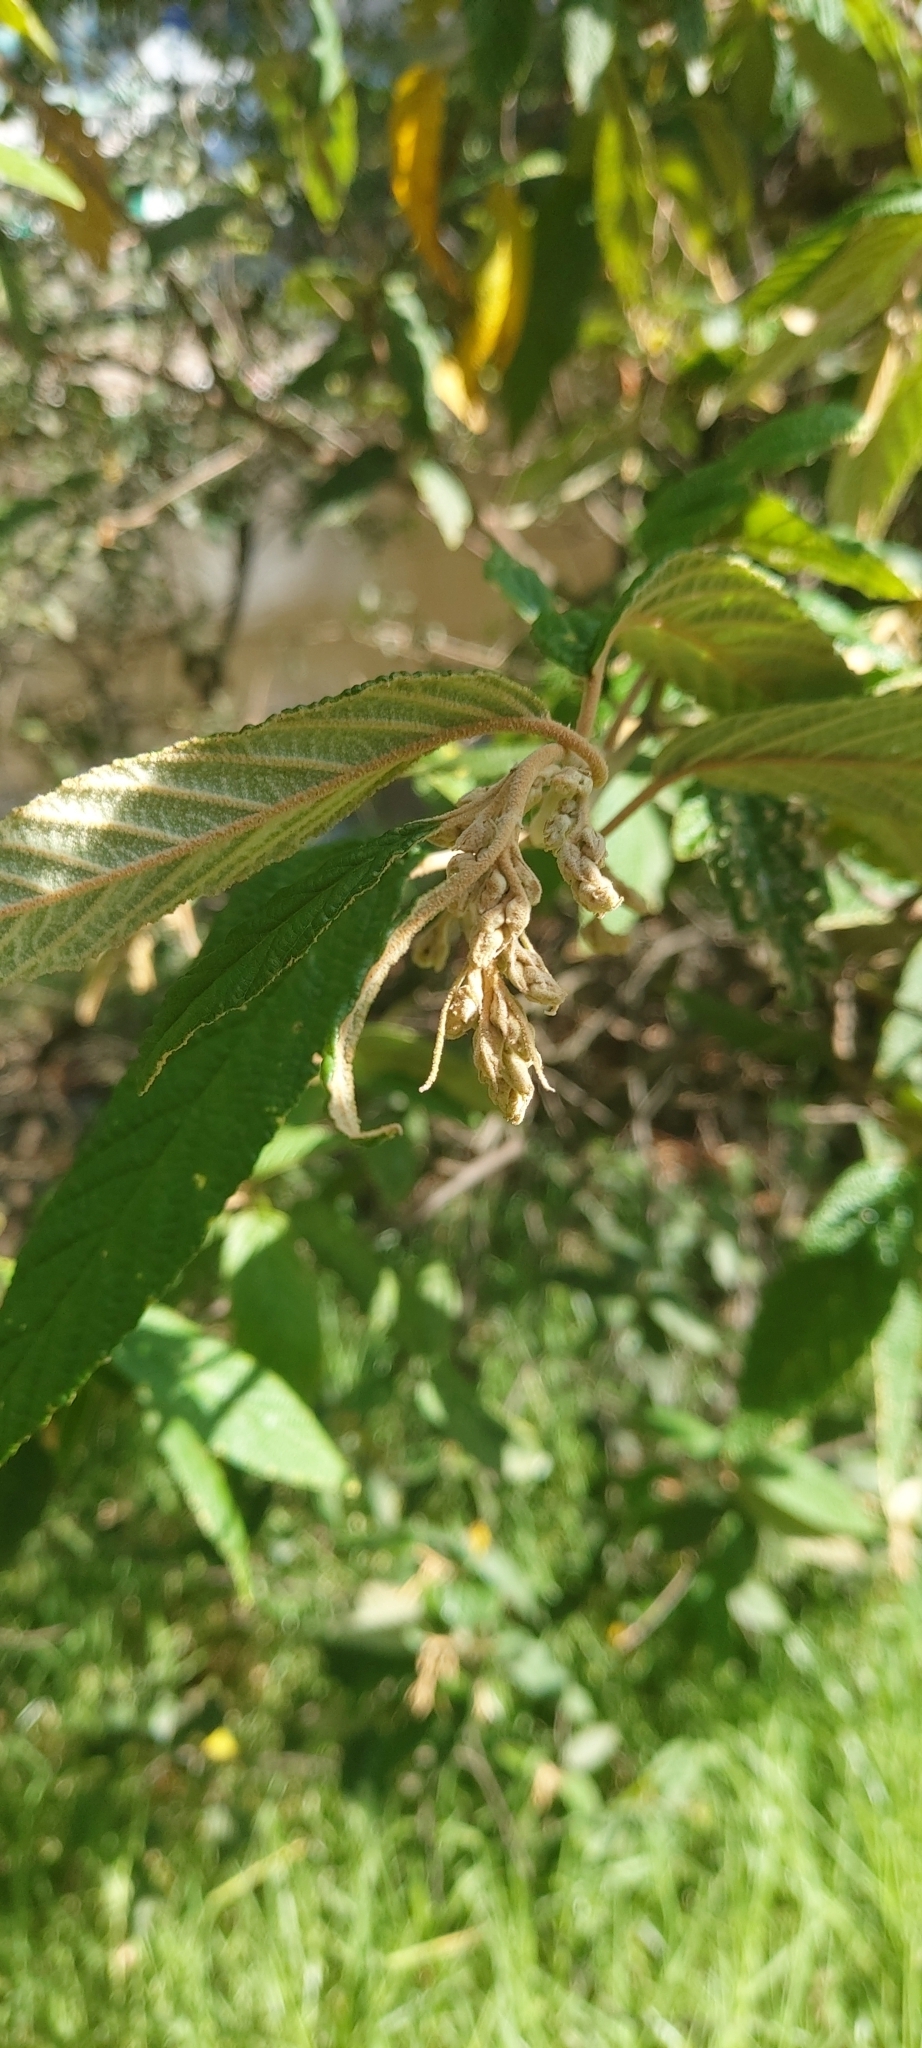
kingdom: Plantae
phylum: Tracheophyta
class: Magnoliopsida
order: Rosales
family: Rhamnaceae
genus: Pomaderris
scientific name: Pomaderris aspera
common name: Hazel pomaderris
